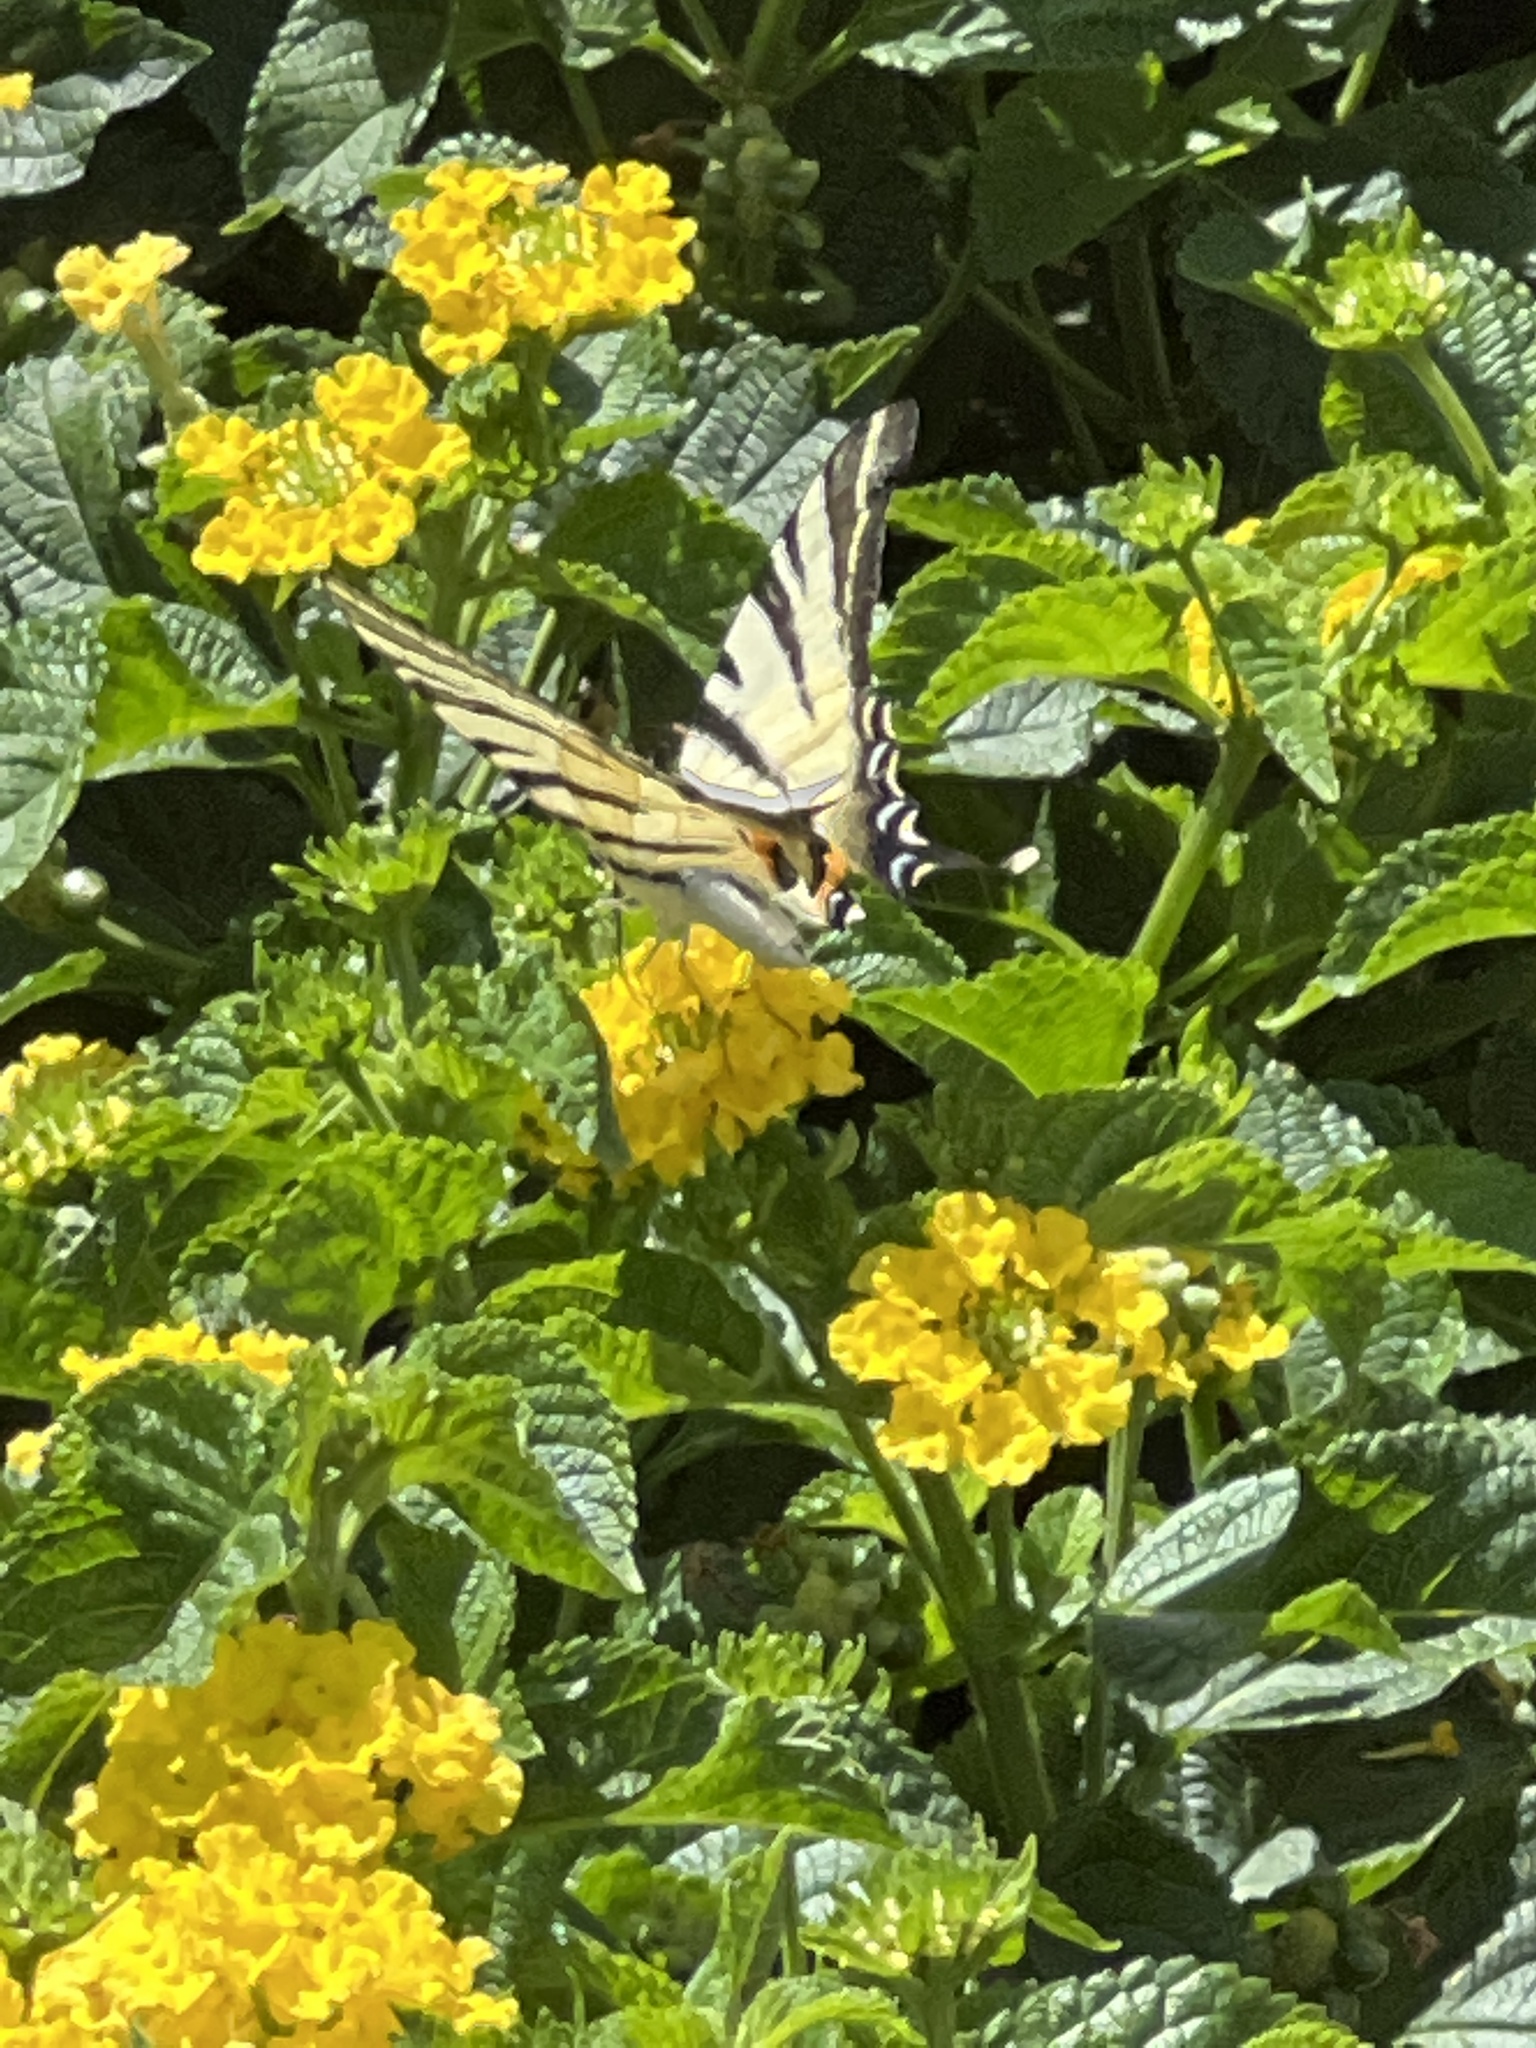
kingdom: Animalia
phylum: Arthropoda
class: Insecta
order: Lepidoptera
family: Papilionidae
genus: Iphiclides
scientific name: Iphiclides podalirius
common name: Scarce swallowtail
